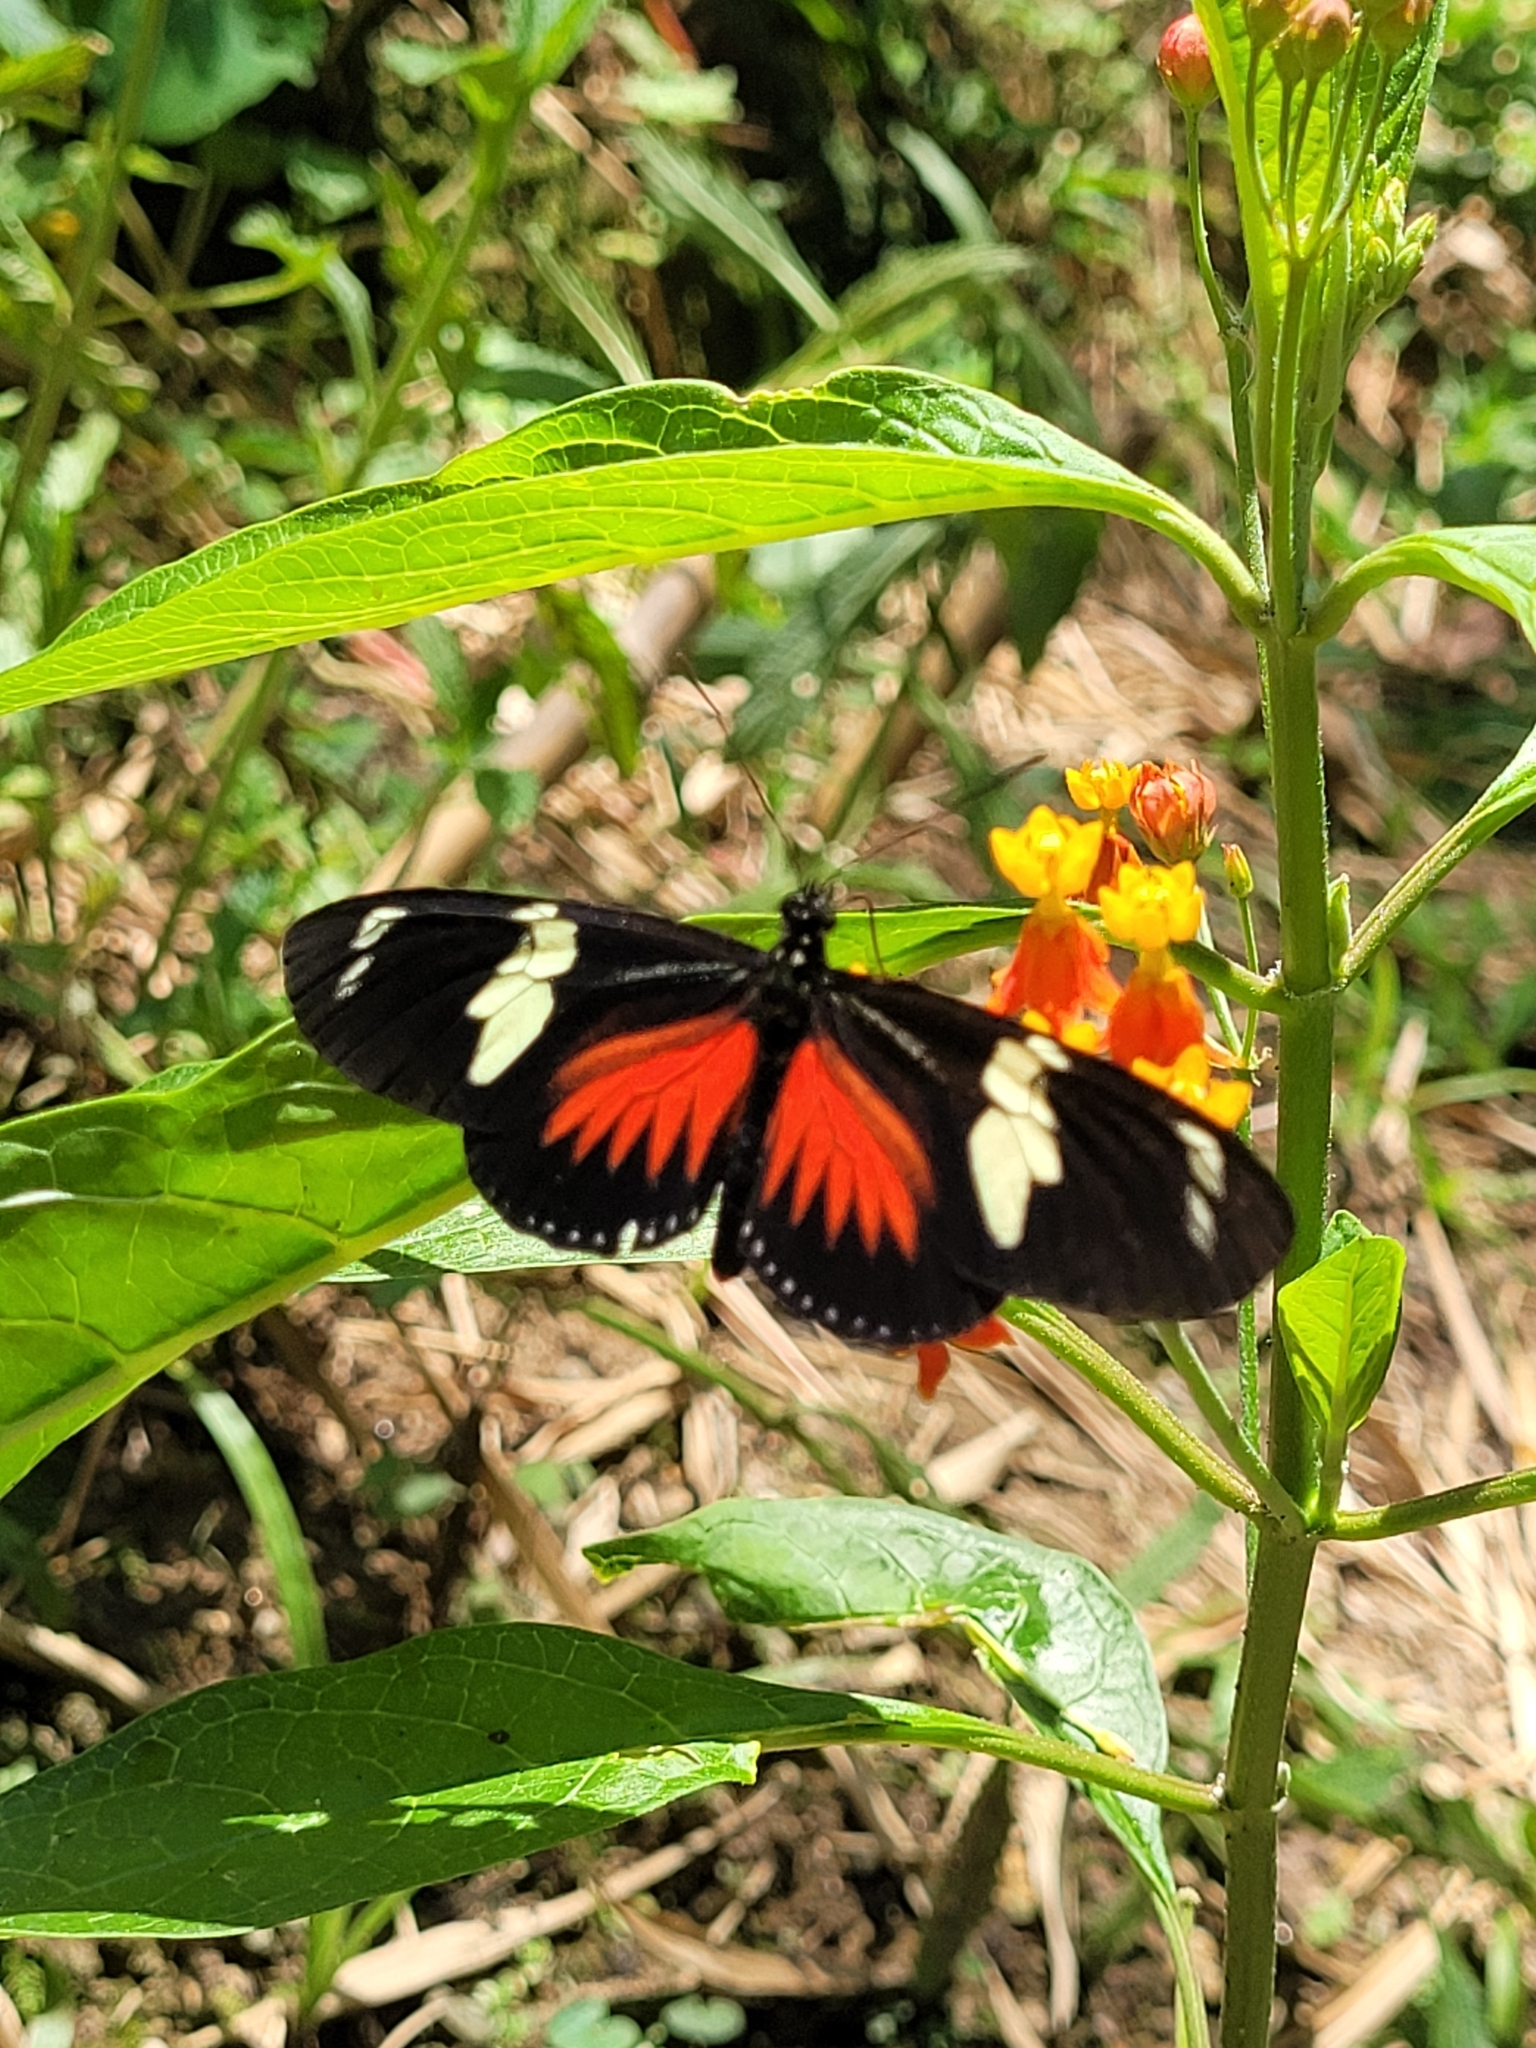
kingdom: Animalia
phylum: Arthropoda
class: Insecta
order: Lepidoptera
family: Nymphalidae
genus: Heliconius
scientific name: Heliconius doris
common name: Doris longwing
